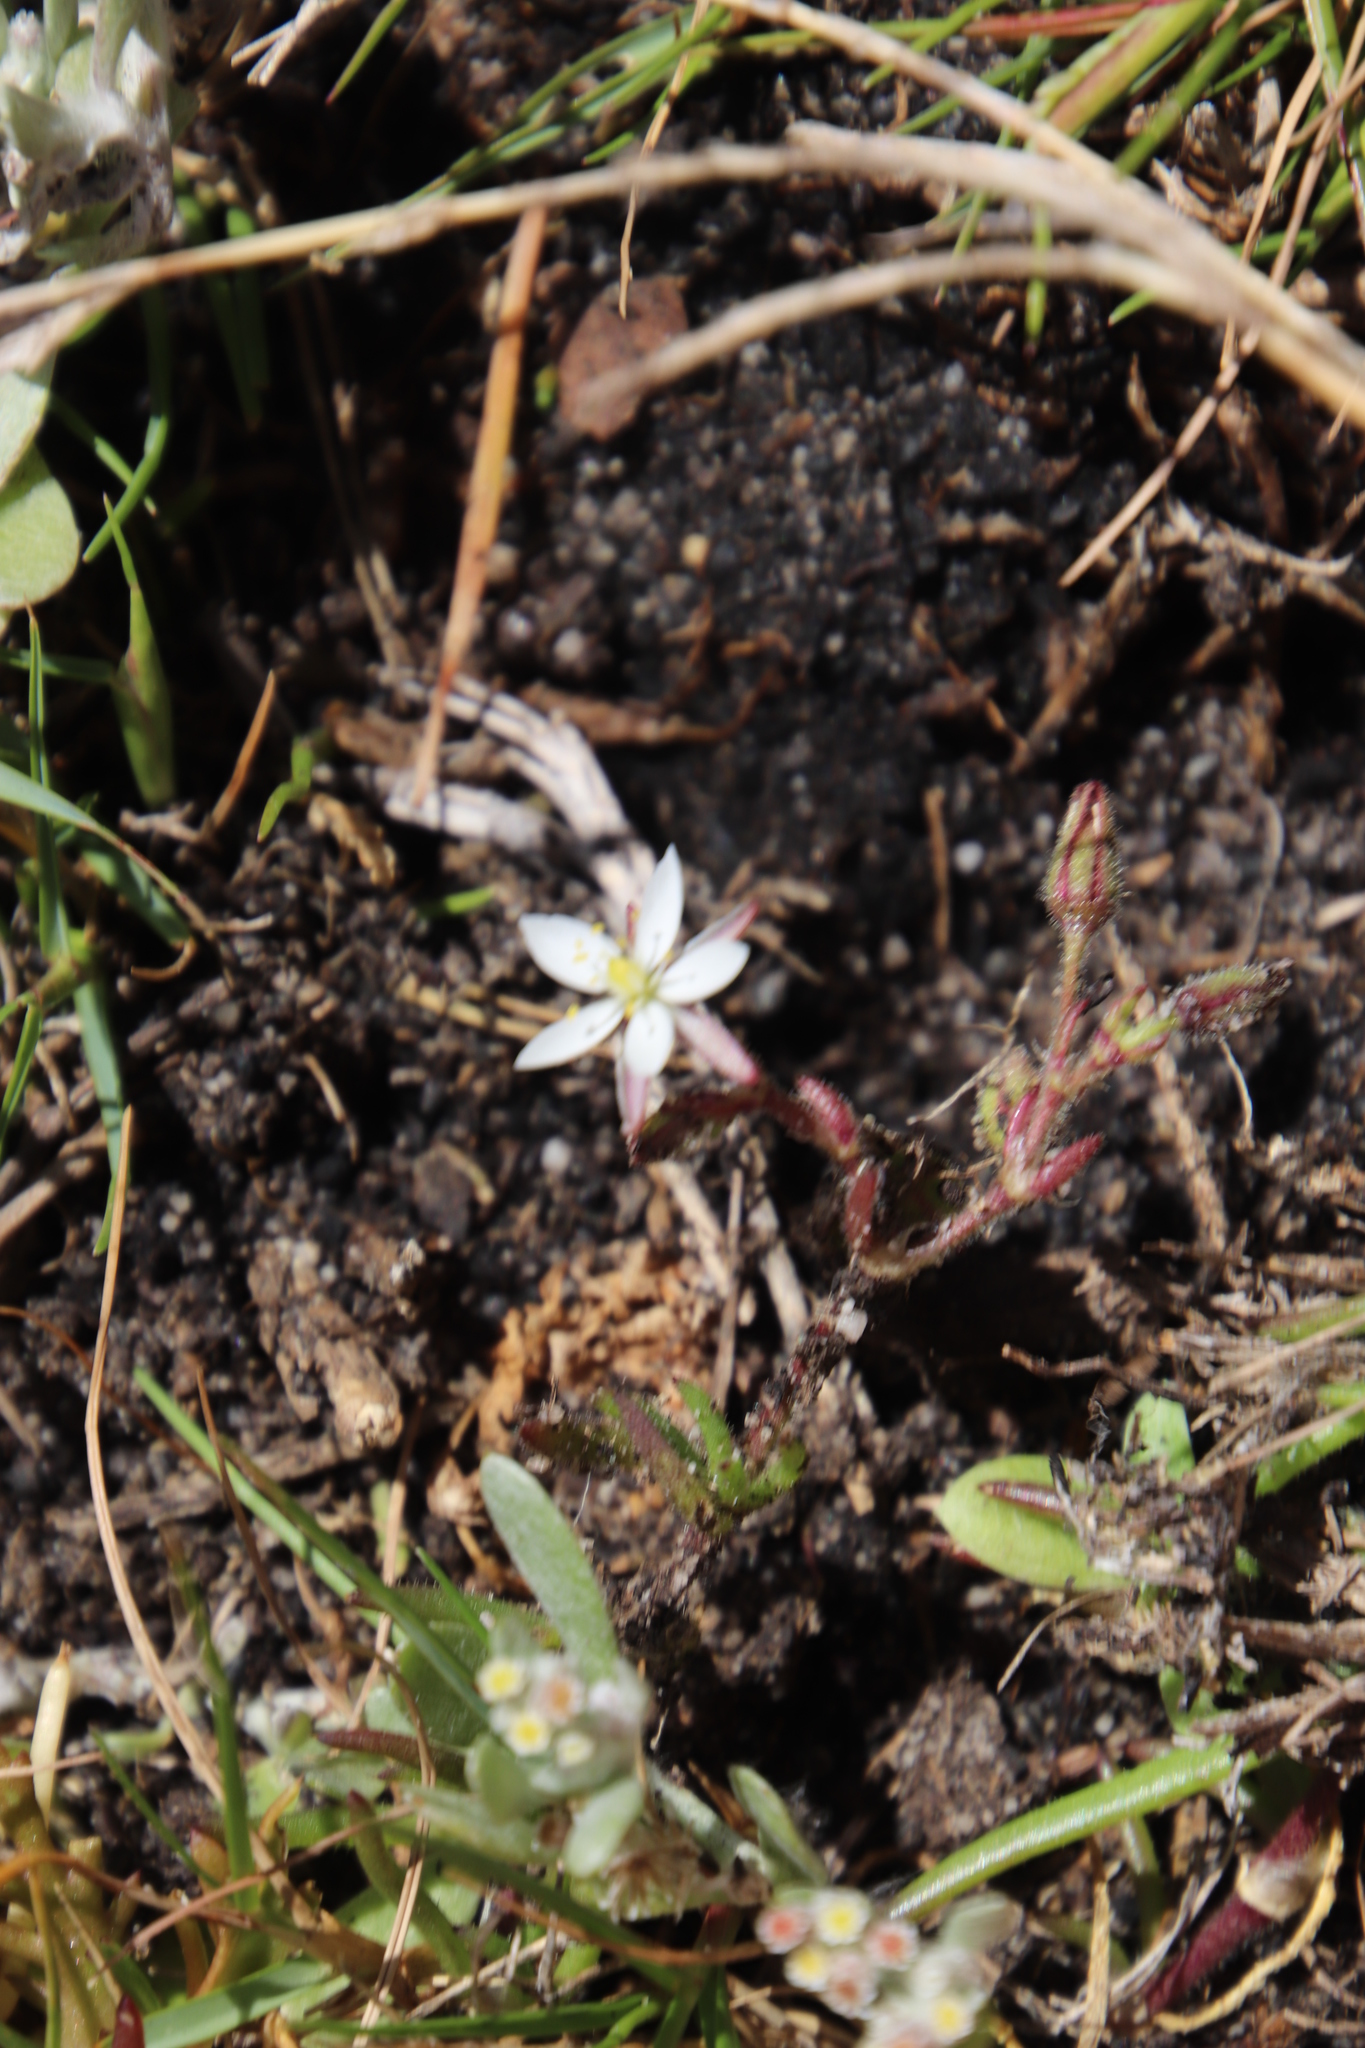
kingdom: Plantae
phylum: Tracheophyta
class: Magnoliopsida
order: Caryophyllales
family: Caryophyllaceae
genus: Spergularia
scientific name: Spergularia media
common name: Greater sea-spurrey
